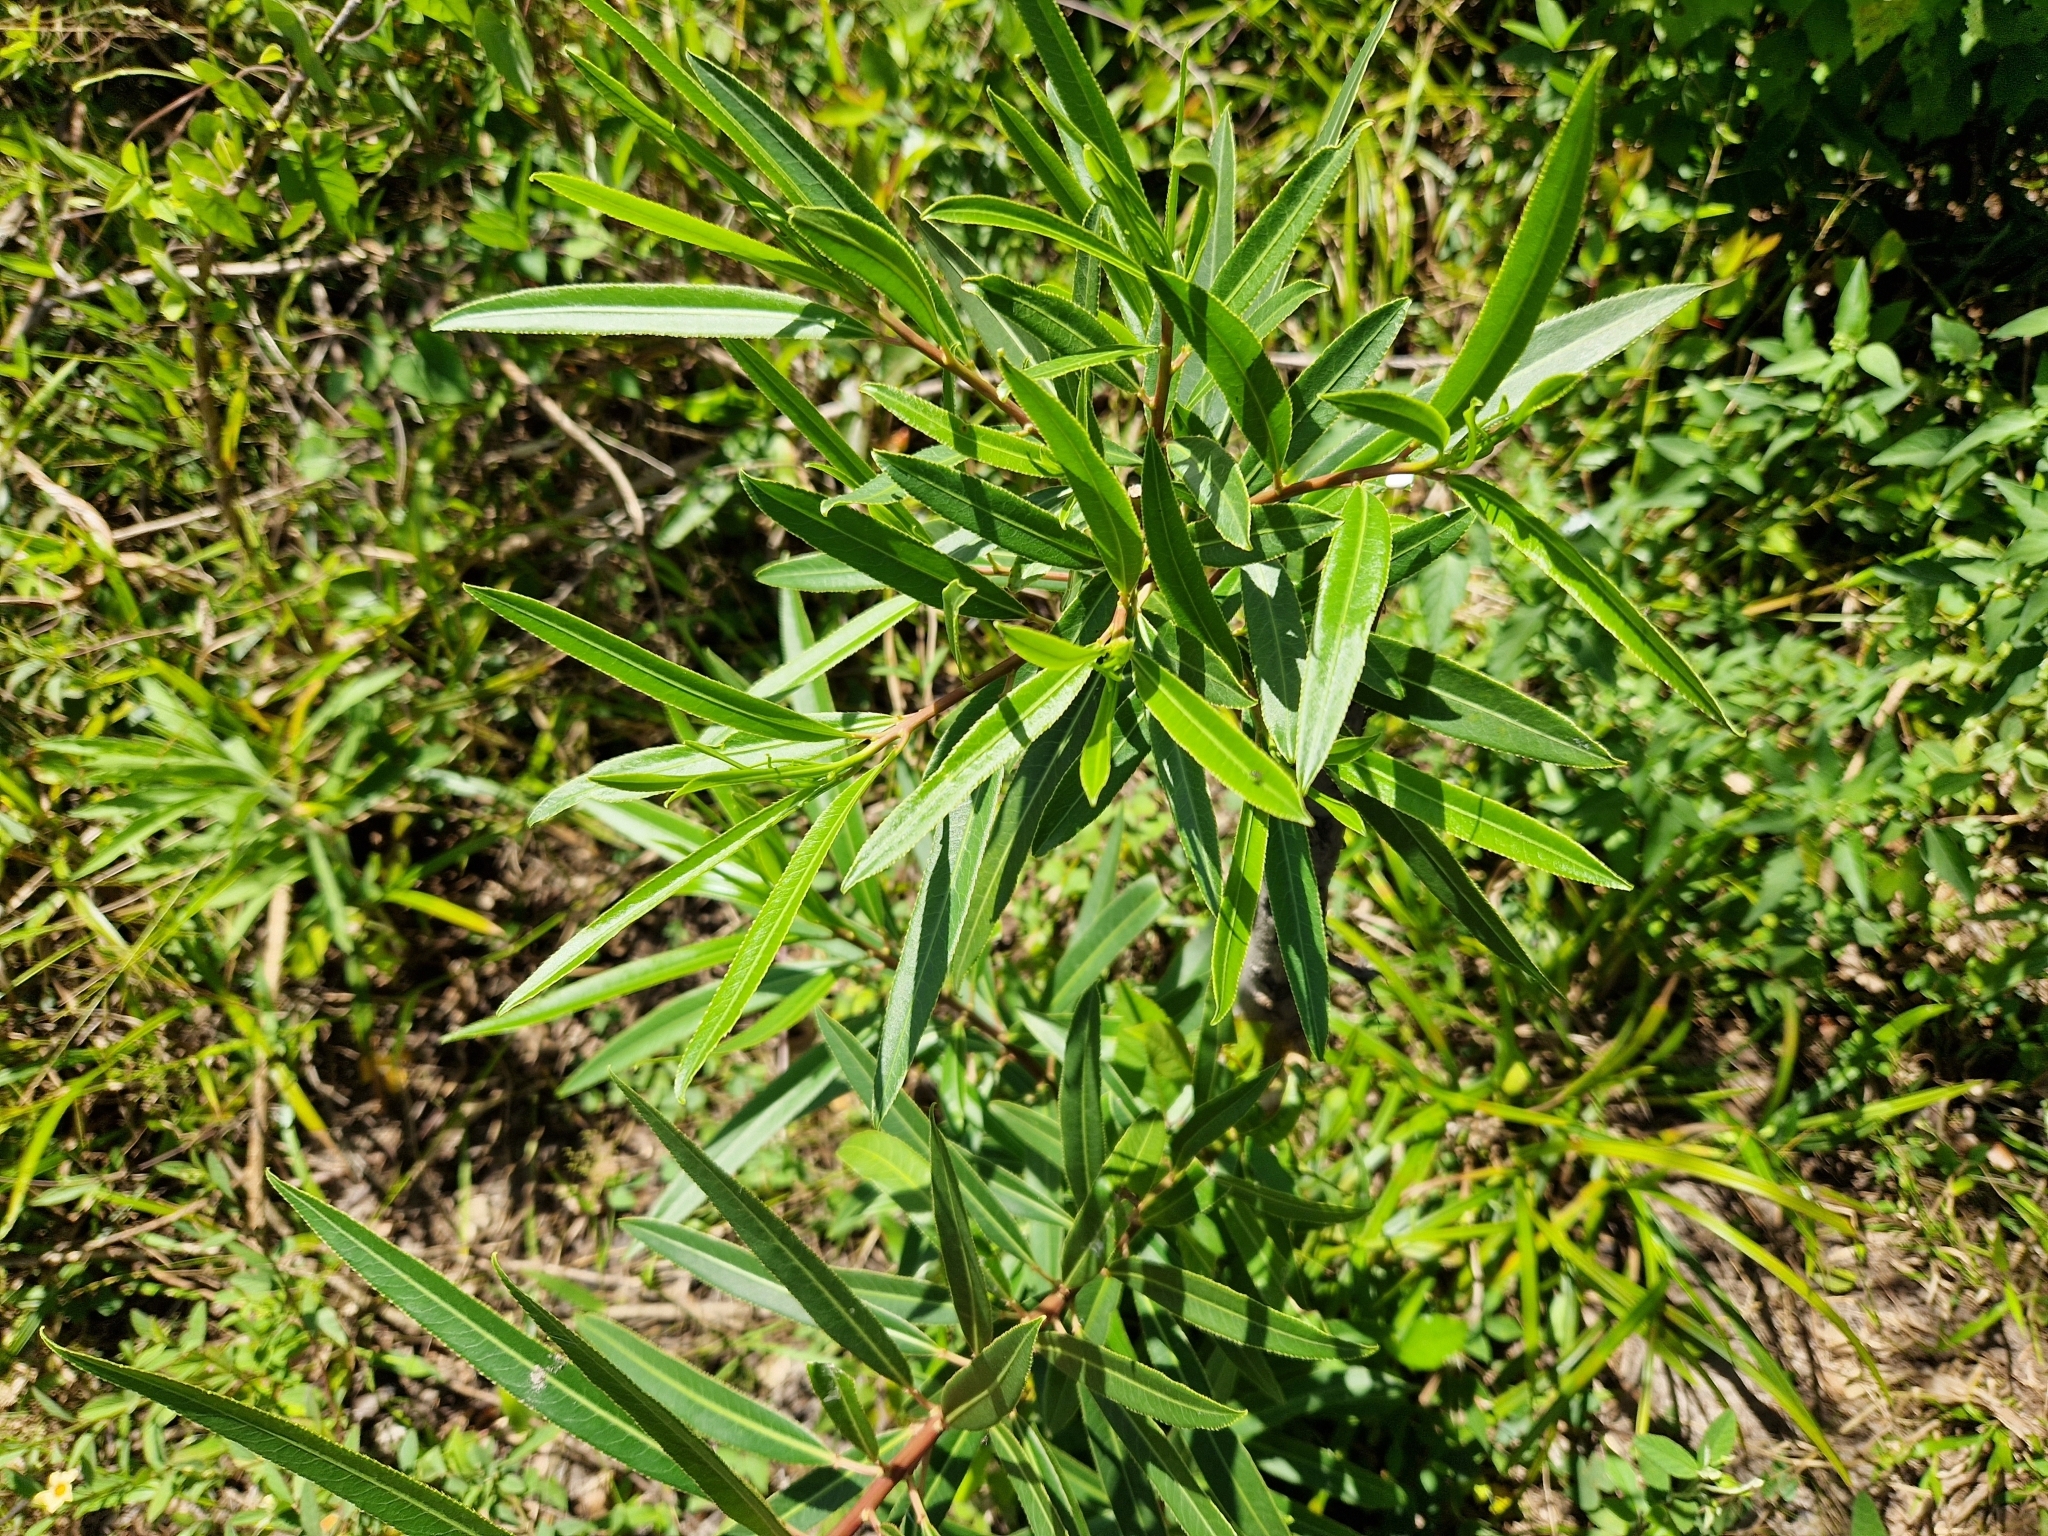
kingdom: Plantae
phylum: Tracheophyta
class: Magnoliopsida
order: Malpighiales
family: Euphorbiaceae
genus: Sapium
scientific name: Sapium haematospermum
